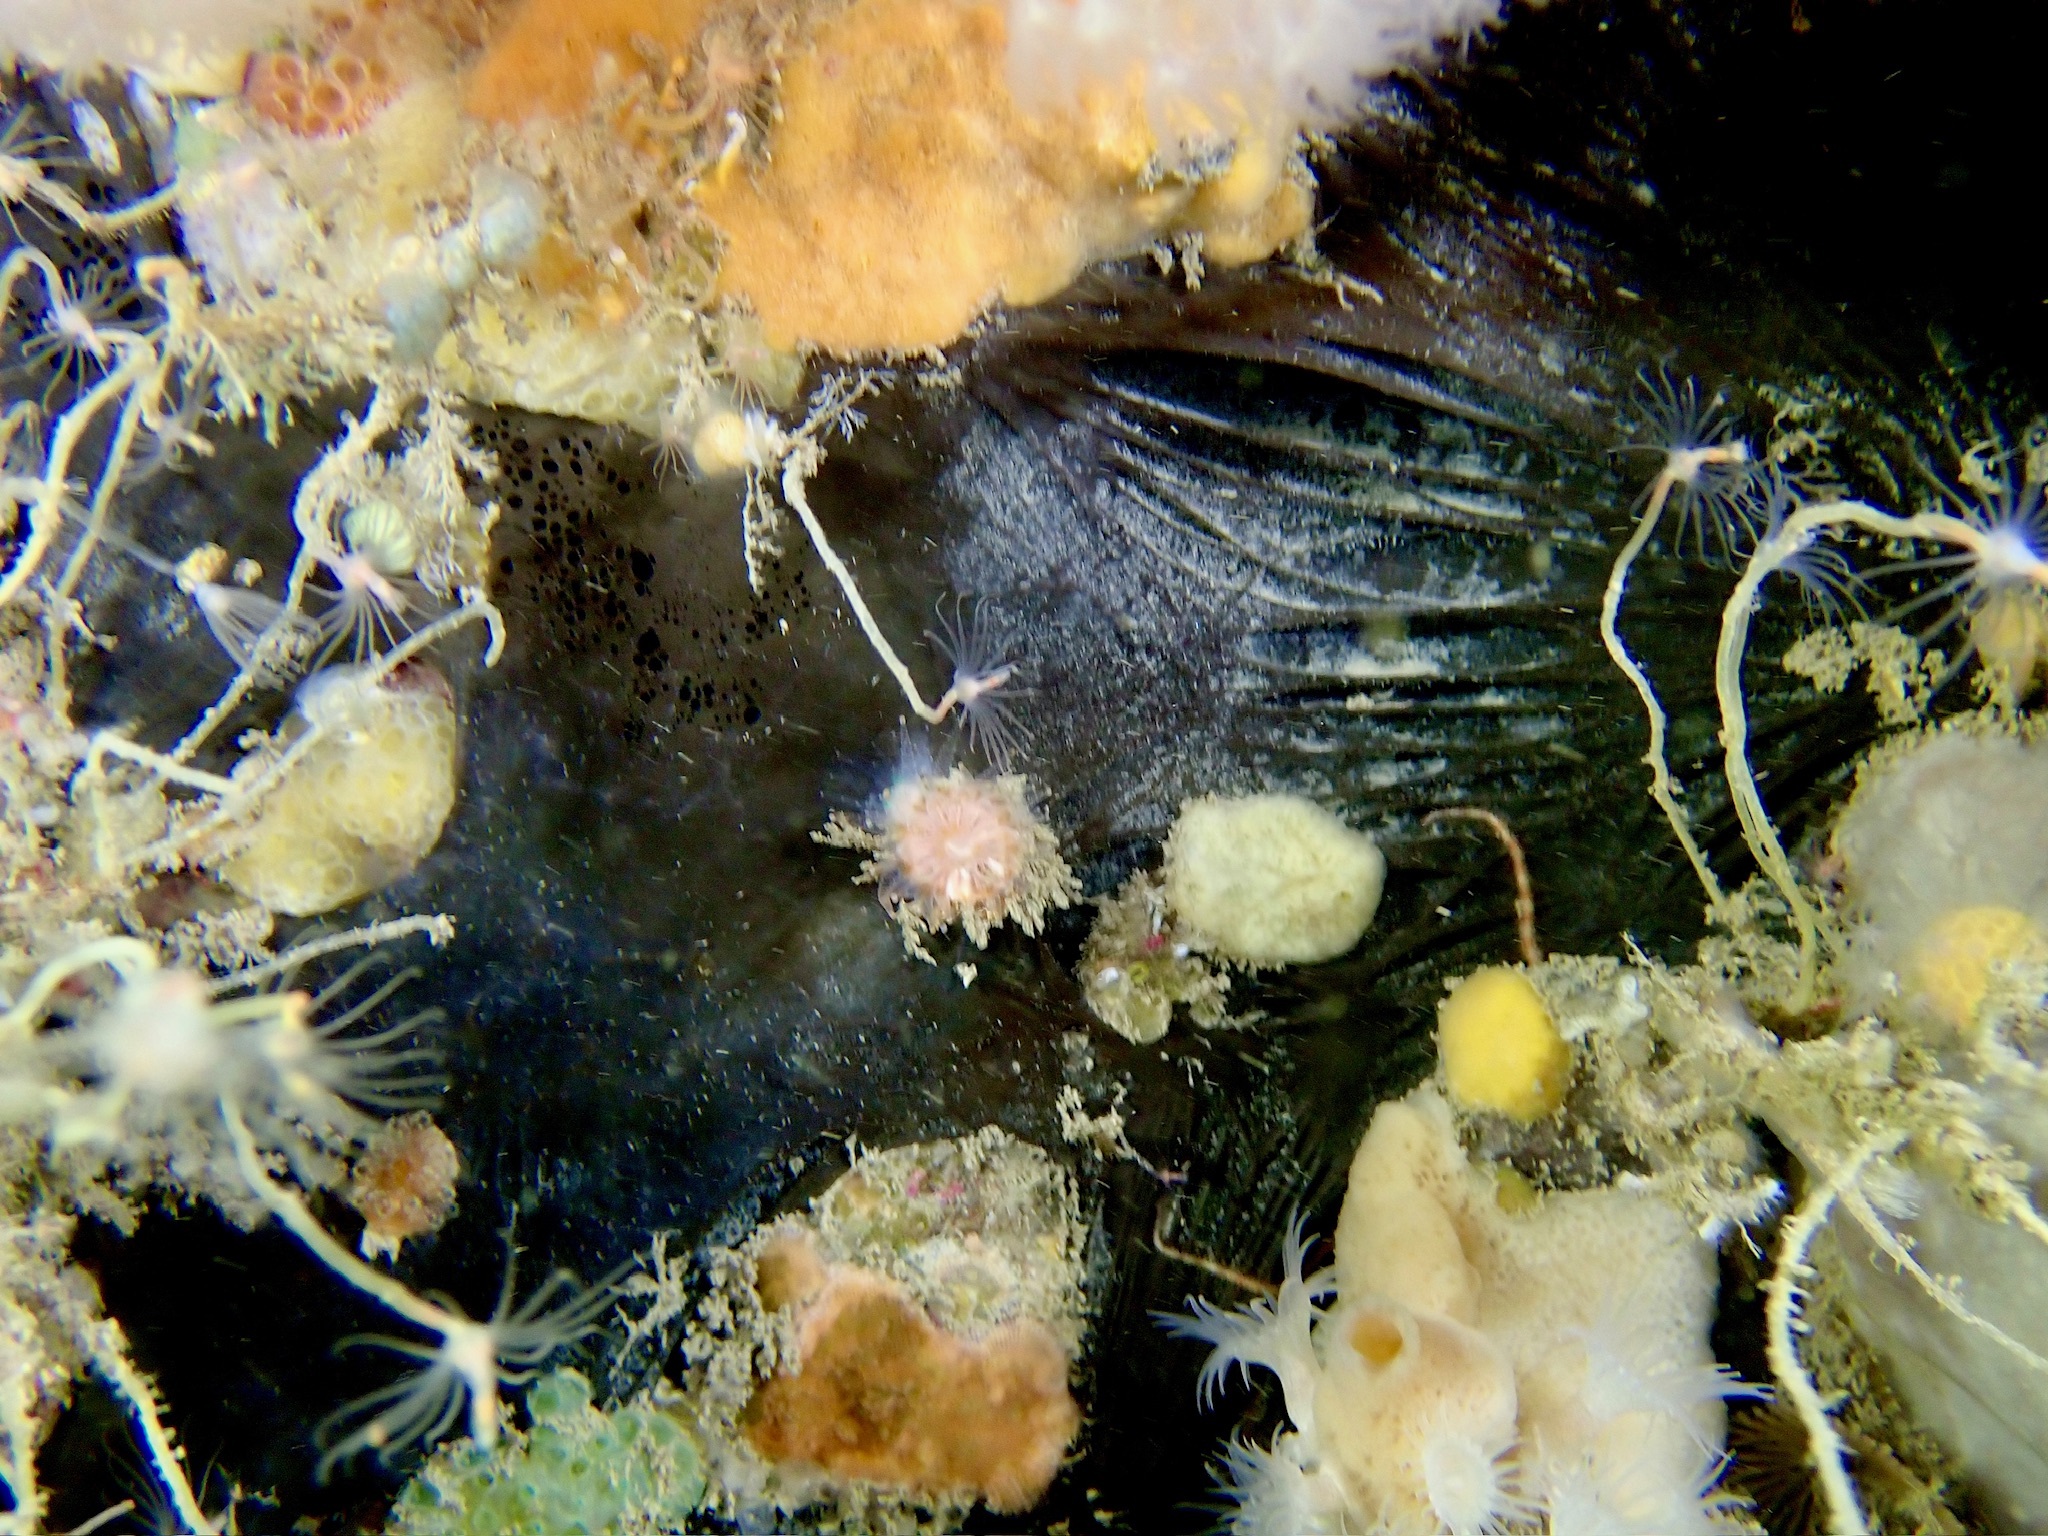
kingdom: Animalia
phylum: Porifera
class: Demospongiae
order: Tetractinellida
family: Ancorinidae
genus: Dercitus
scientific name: Dercitus bucklandi
